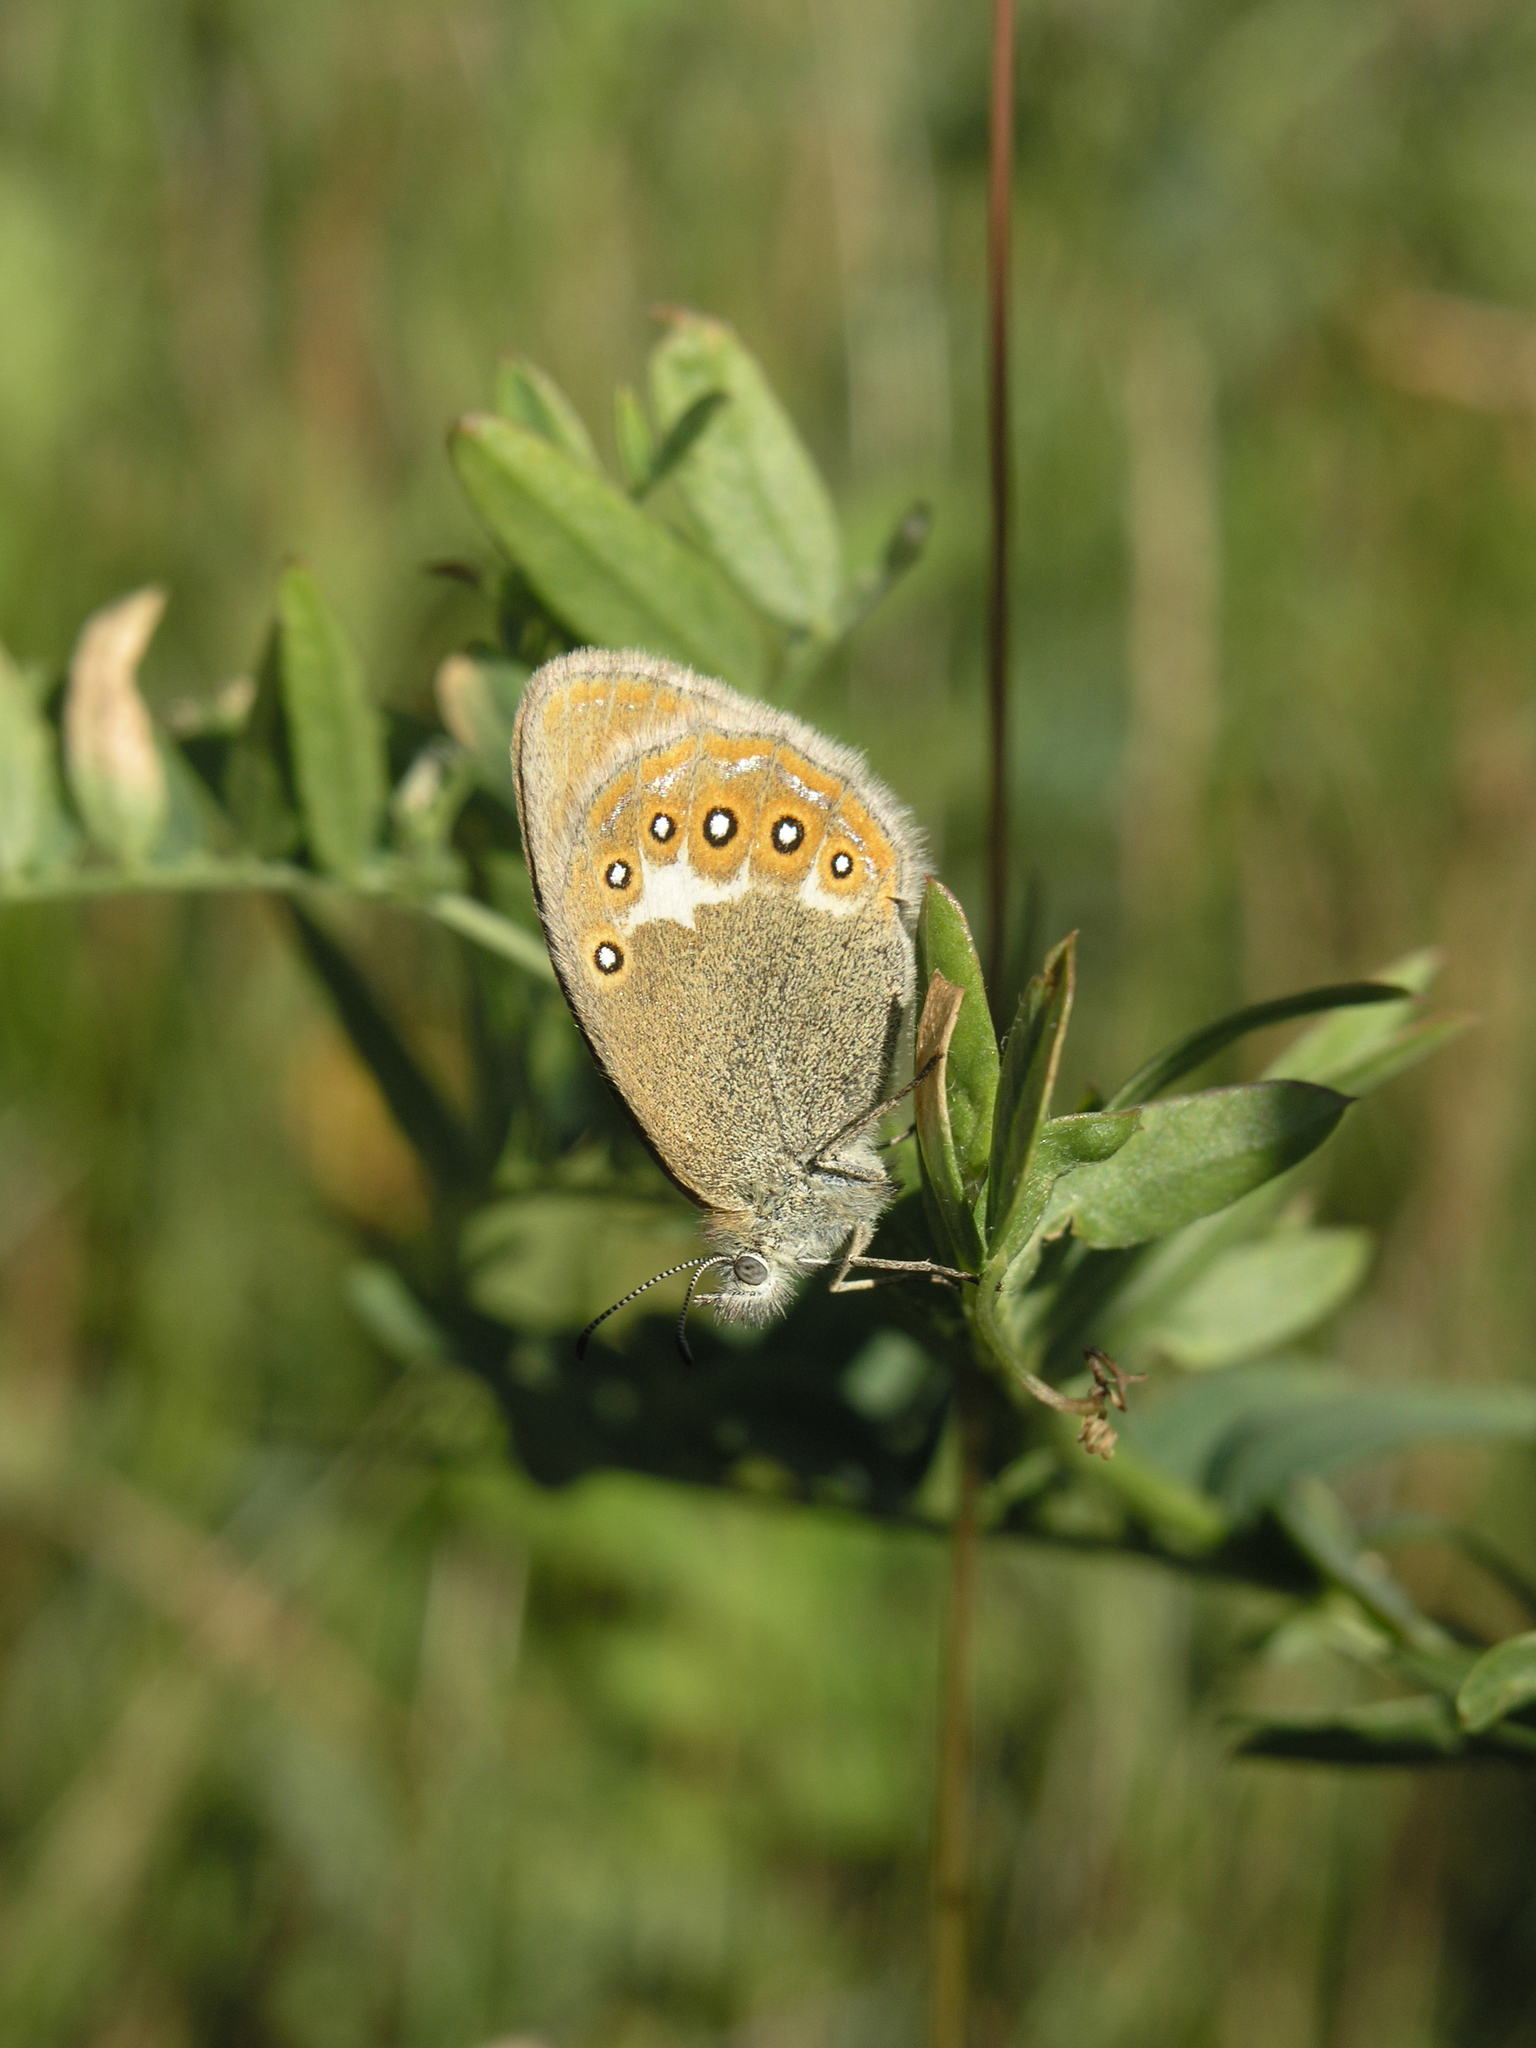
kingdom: Animalia
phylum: Arthropoda
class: Insecta
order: Lepidoptera
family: Nymphalidae
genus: Coenonympha
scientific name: Coenonympha iphis
